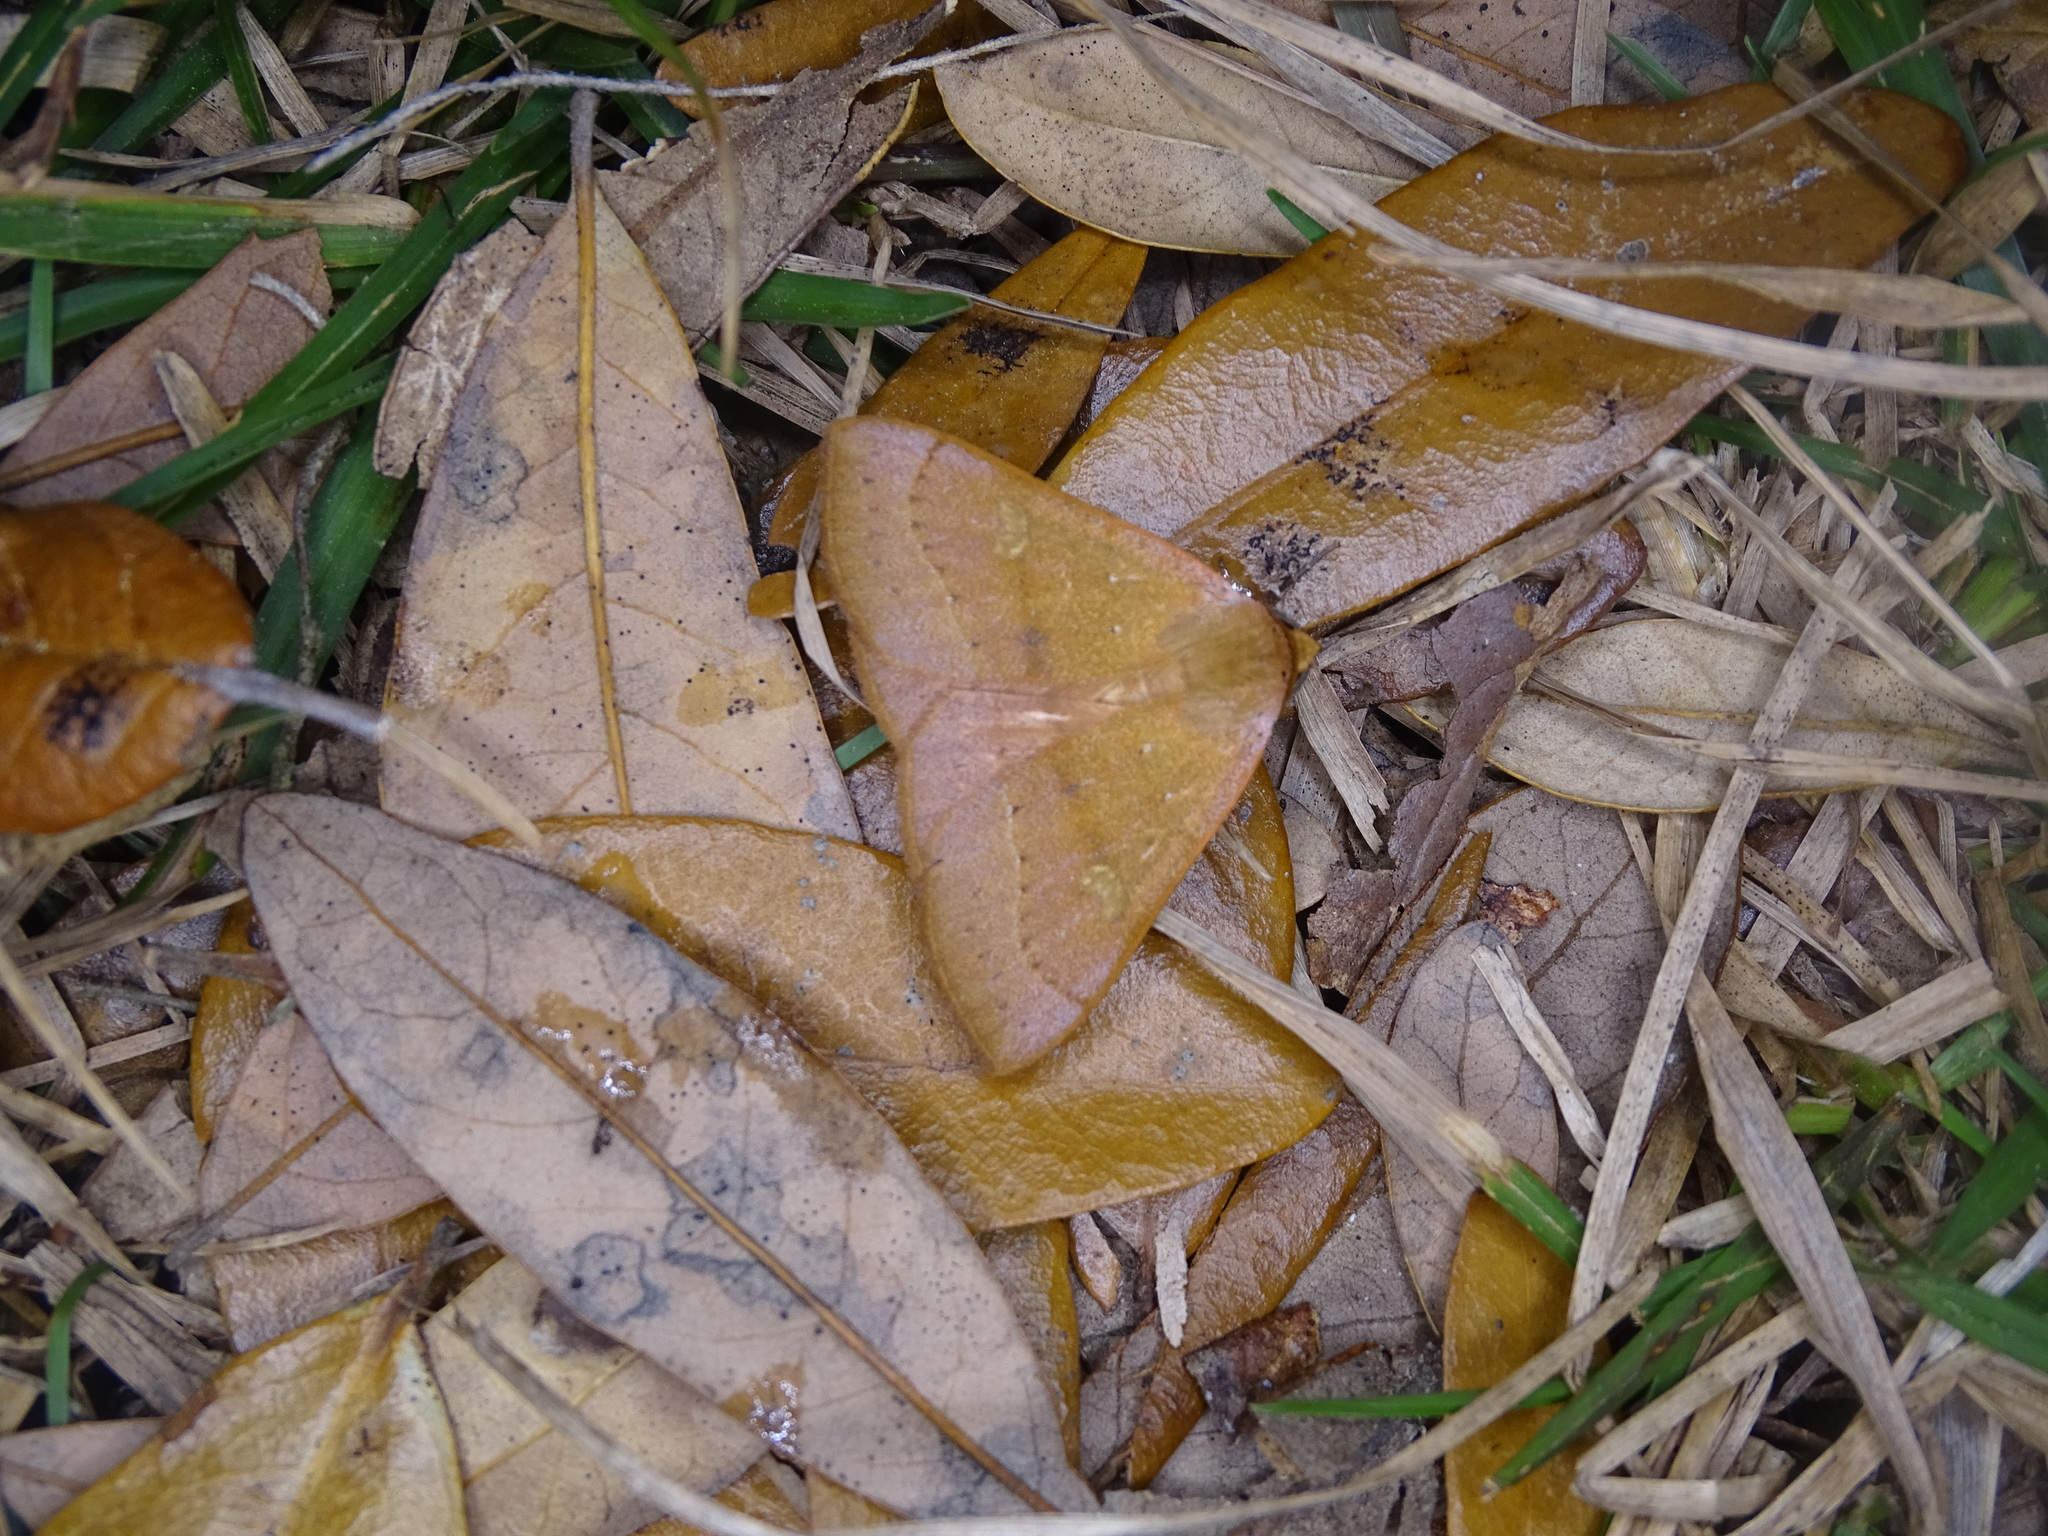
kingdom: Animalia
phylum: Arthropoda
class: Insecta
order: Lepidoptera
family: Erebidae
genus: Panopoda
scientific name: Panopoda repanda
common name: Orange panopoda
